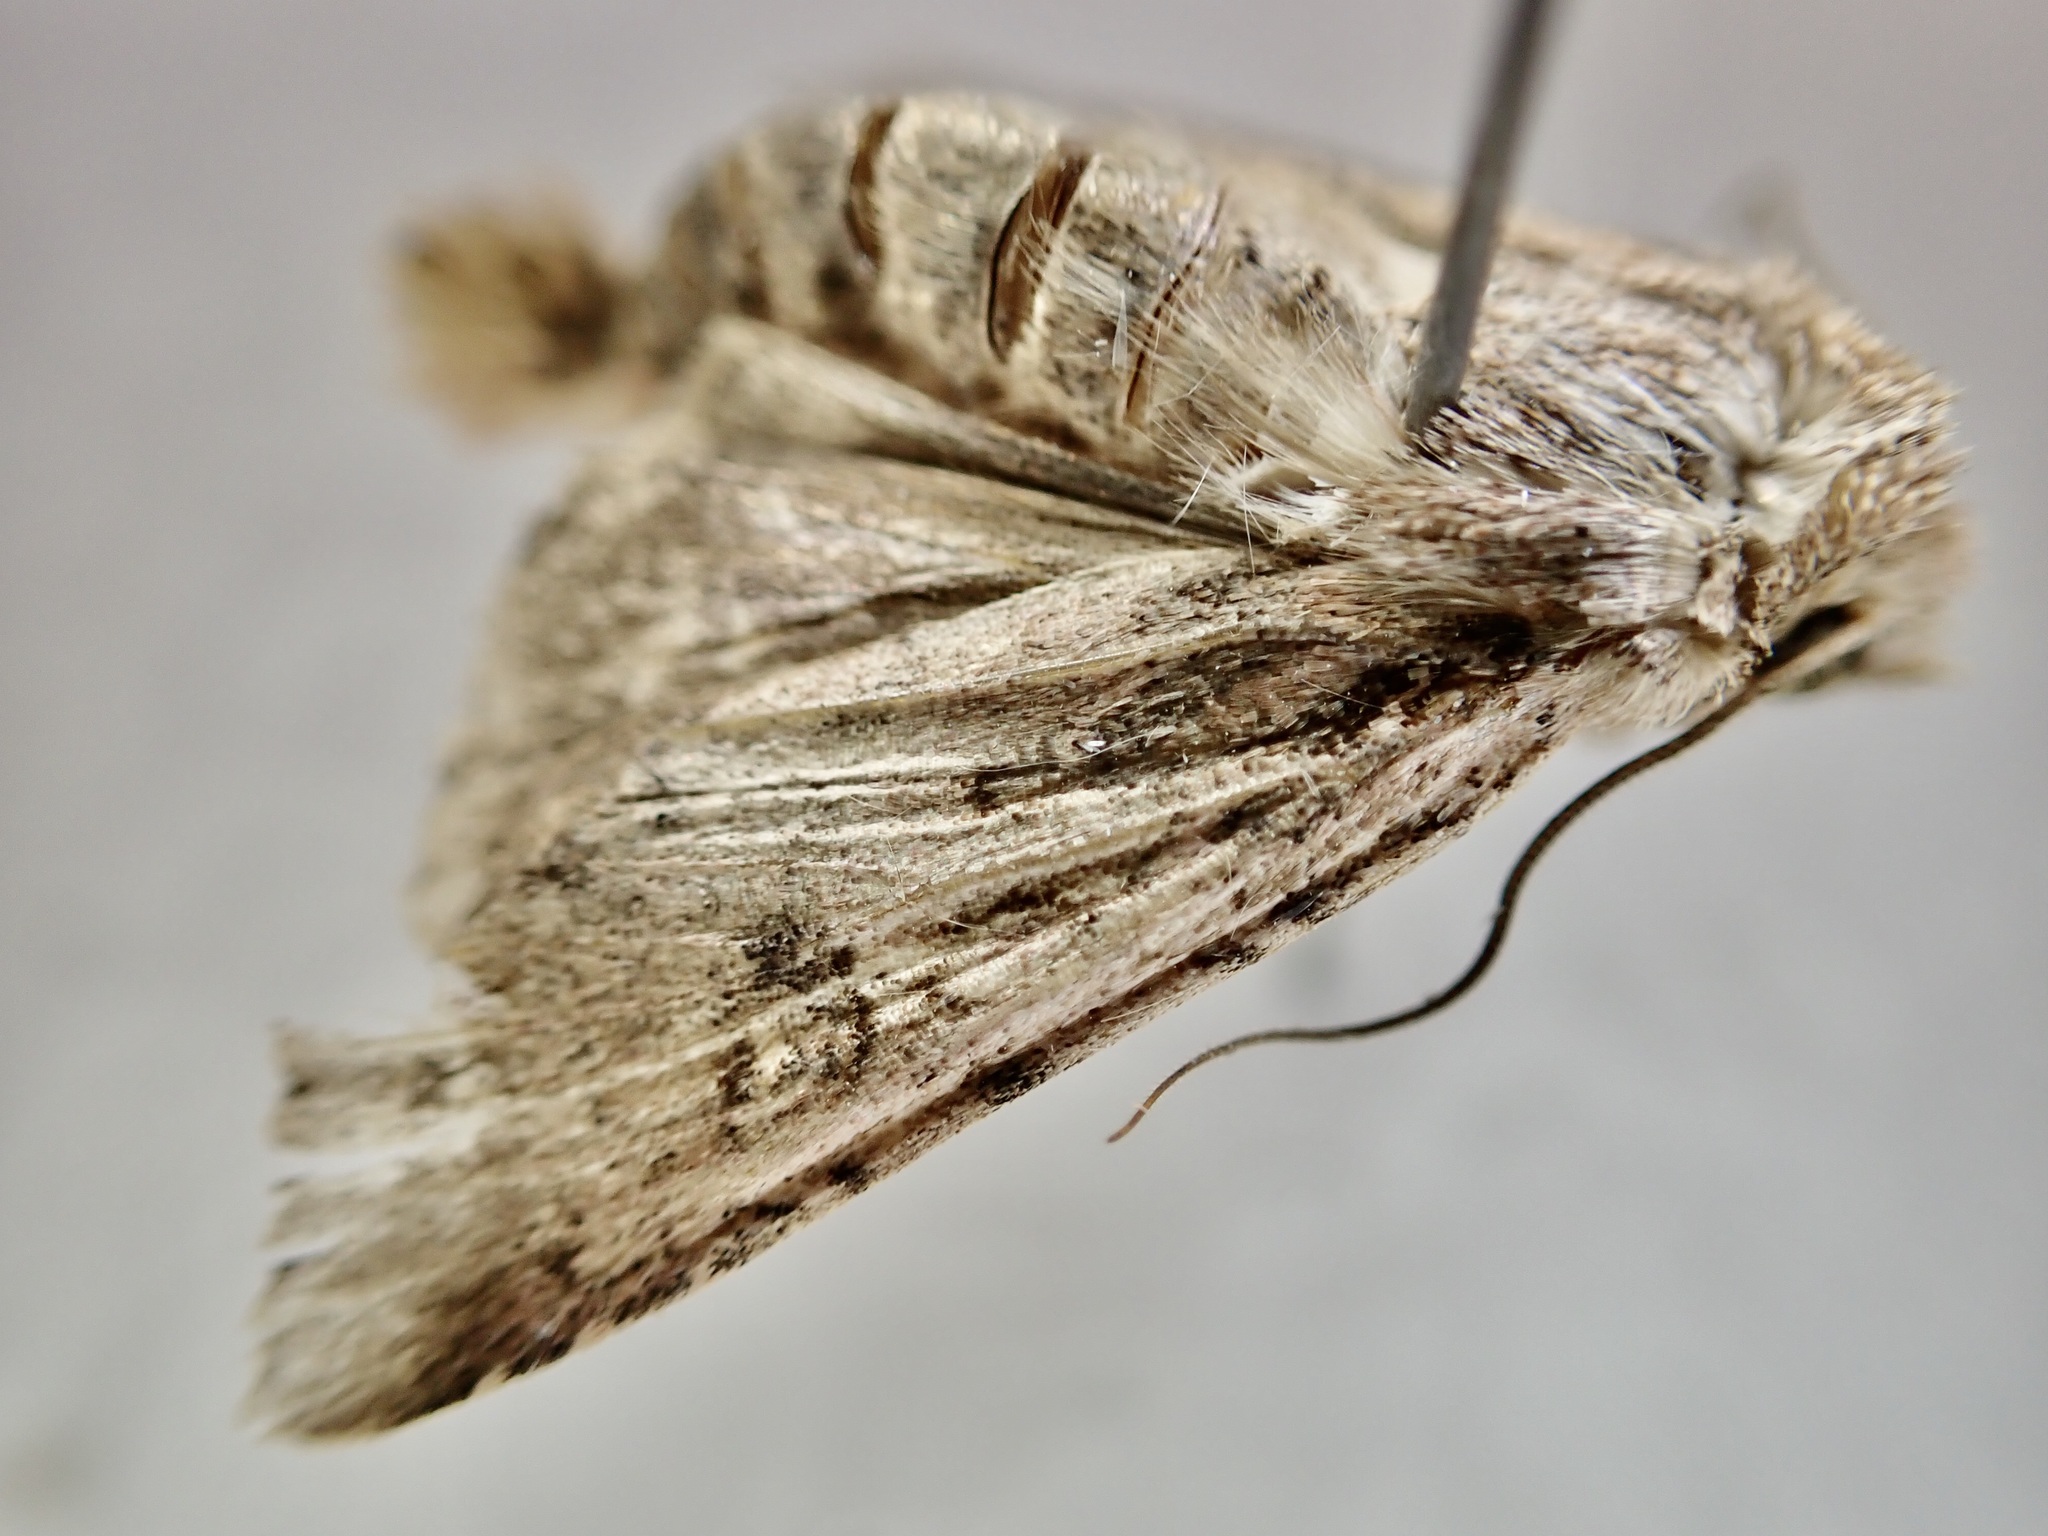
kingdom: Animalia
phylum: Arthropoda
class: Insecta
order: Lepidoptera
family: Noctuidae
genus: Ichneutica
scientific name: Ichneutica lignana
